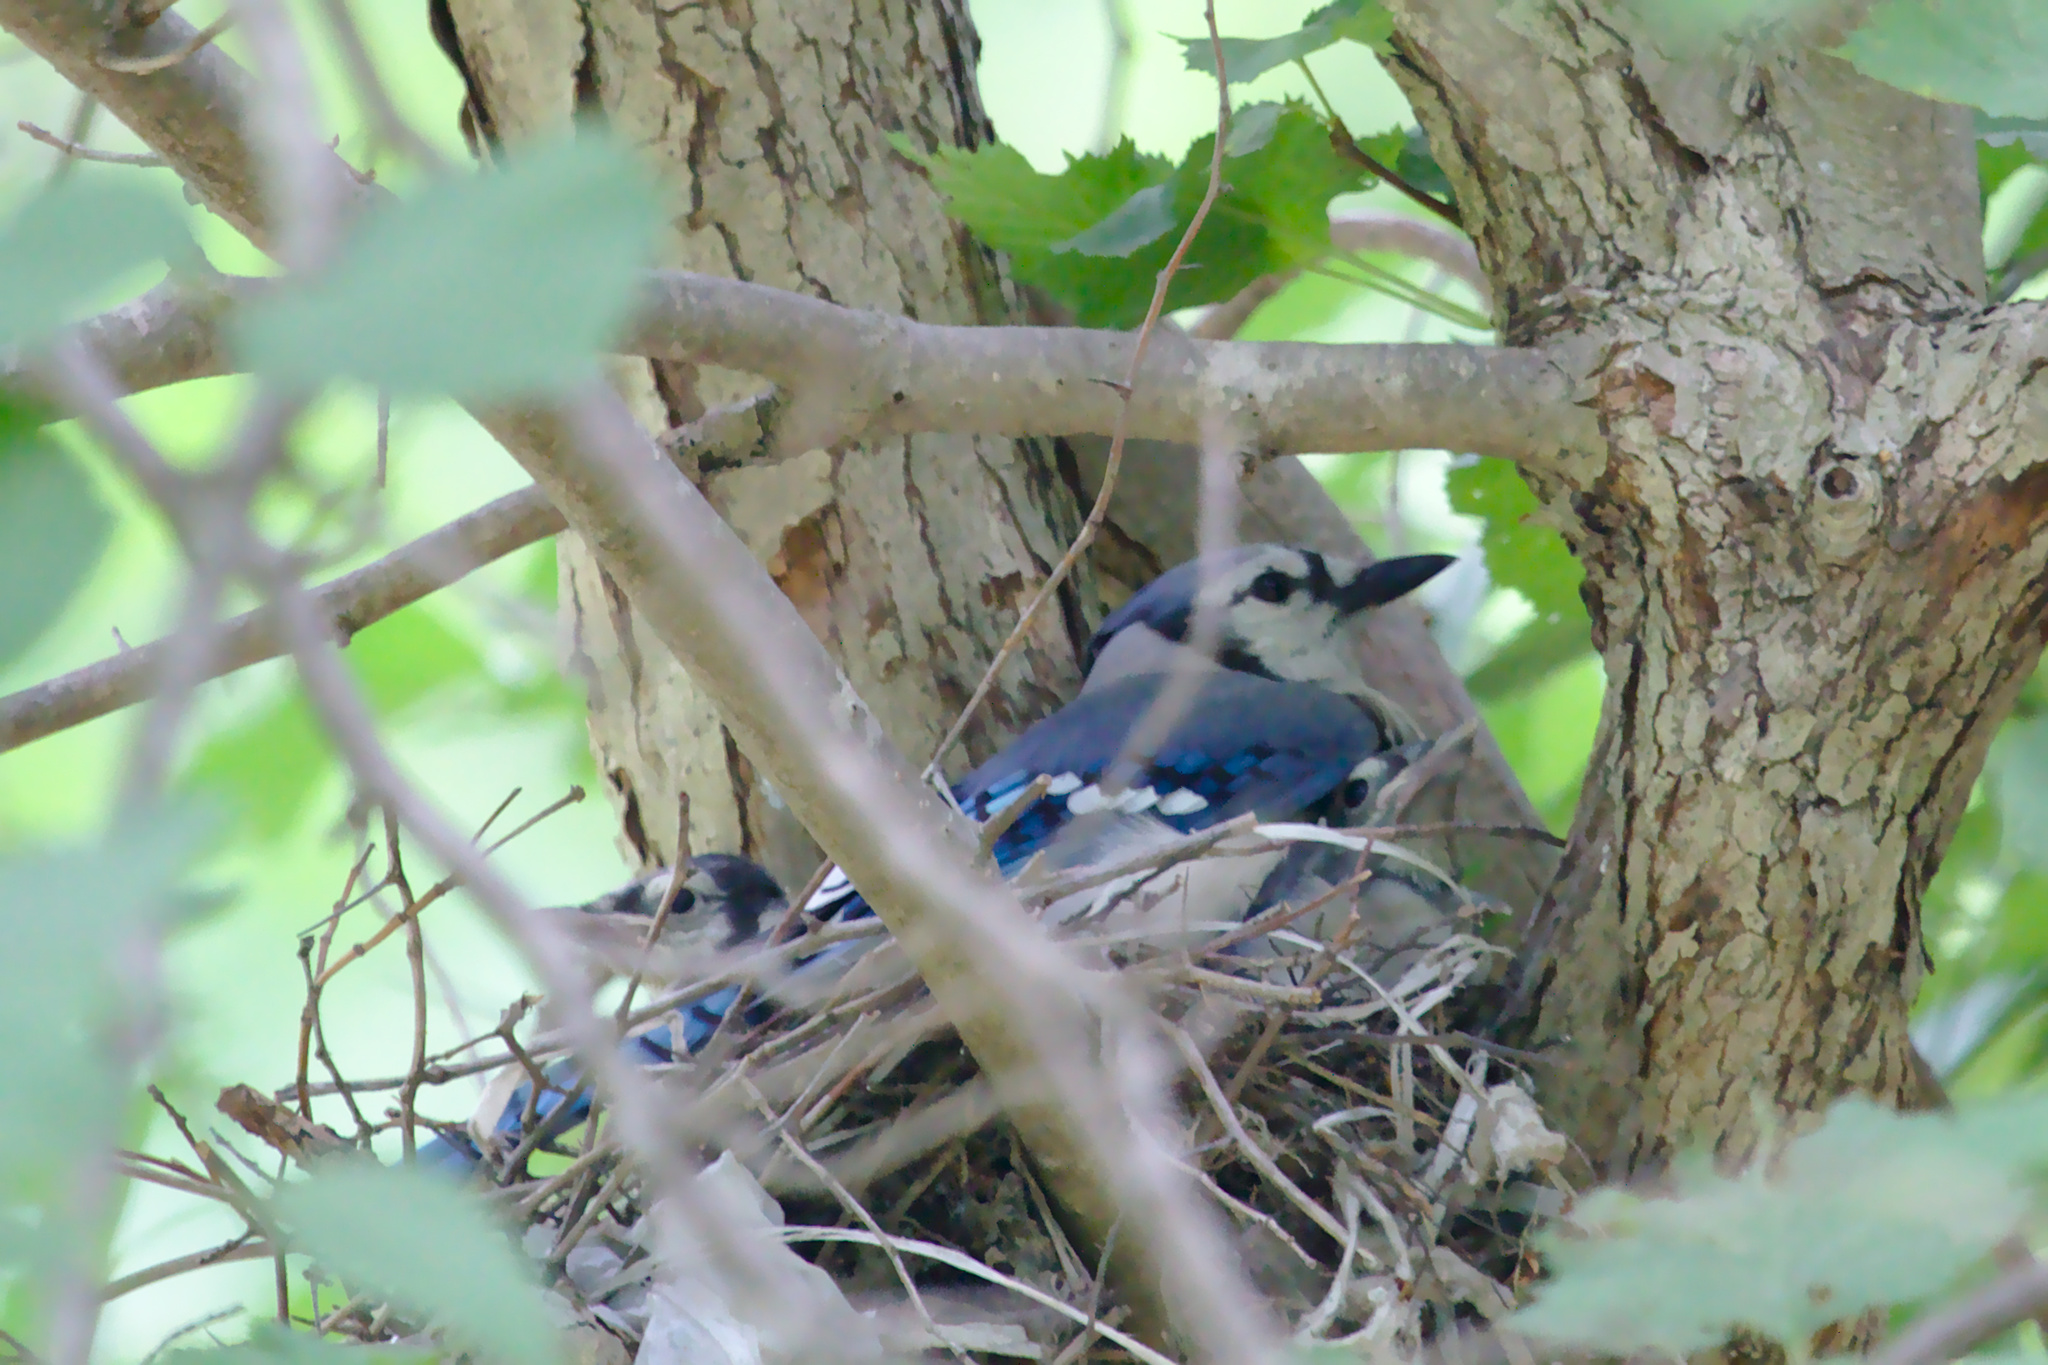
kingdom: Animalia
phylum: Chordata
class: Aves
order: Passeriformes
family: Corvidae
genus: Cyanocitta
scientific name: Cyanocitta cristata
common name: Blue jay
